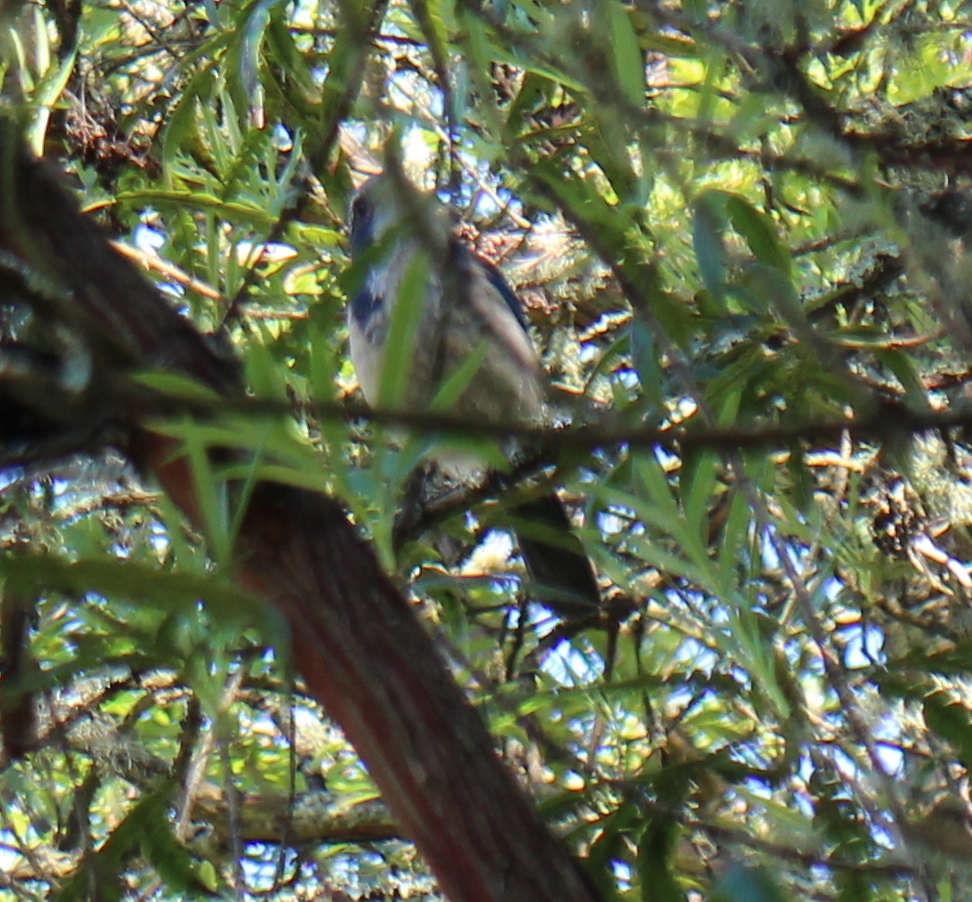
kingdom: Animalia
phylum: Chordata
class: Aves
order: Passeriformes
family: Corvidae
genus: Aphelocoma
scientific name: Aphelocoma californica
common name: California scrub-jay
